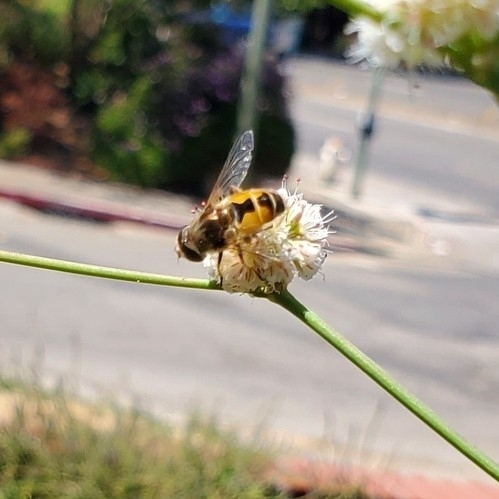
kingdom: Animalia
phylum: Arthropoda
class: Insecta
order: Diptera
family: Syrphidae
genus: Eristalis
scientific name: Eristalis arbustorum
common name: Hover fly
